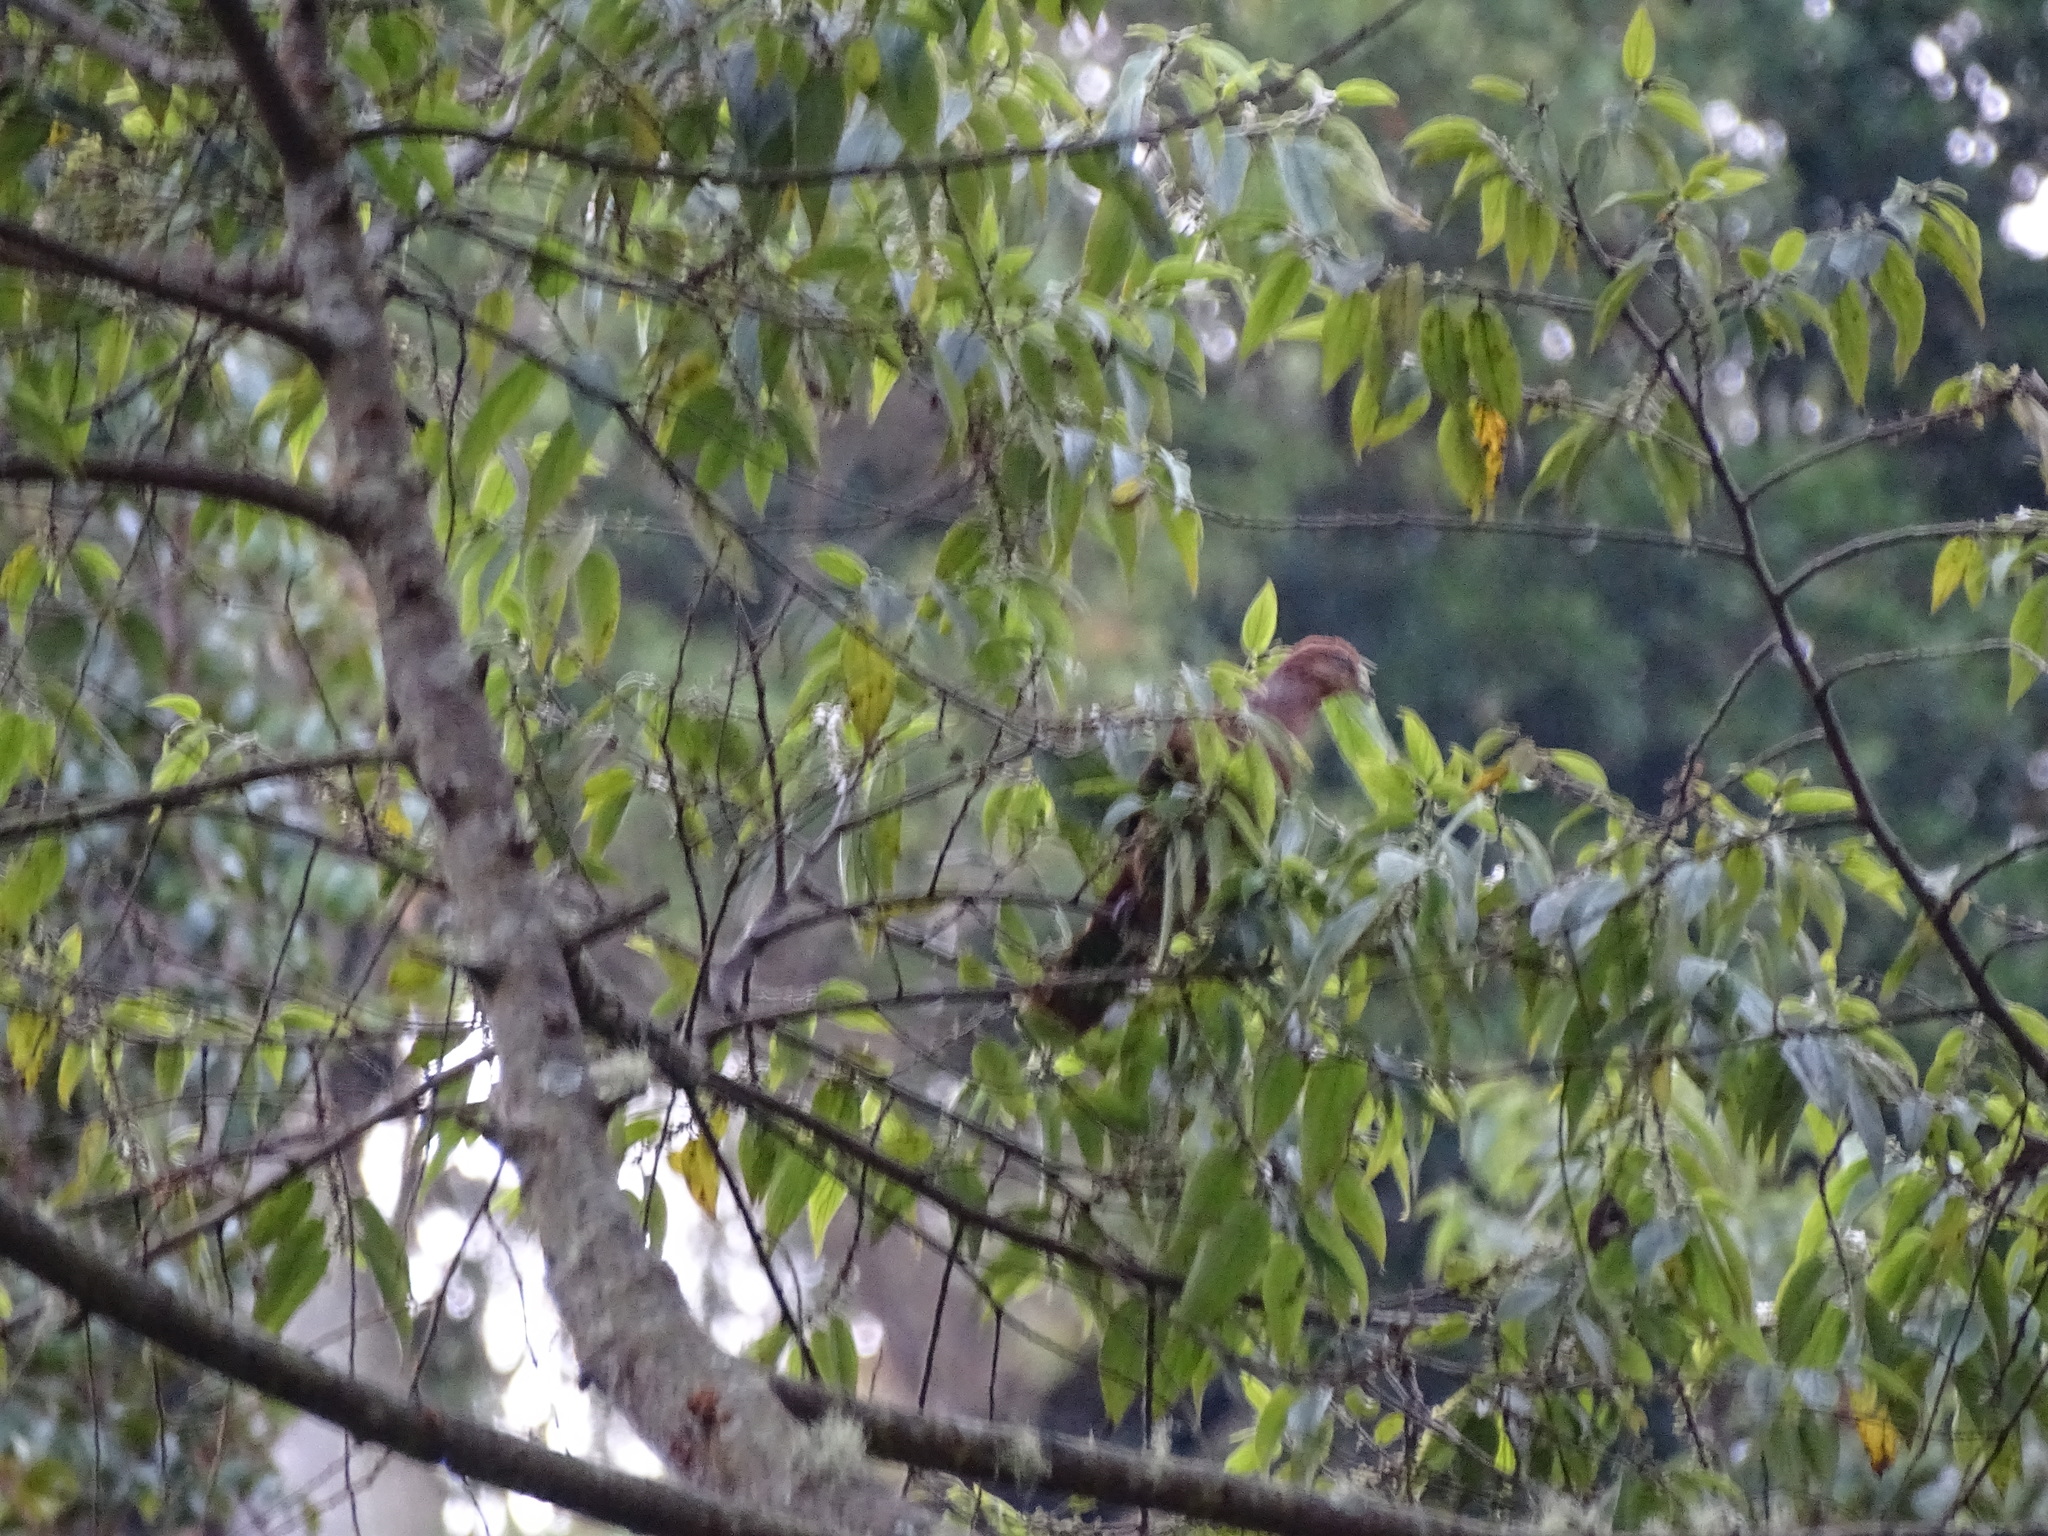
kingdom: Animalia
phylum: Chordata
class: Aves
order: Columbiformes
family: Columbidae
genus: Macropygia
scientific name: Macropygia ruficeps
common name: Little cuckoo-dove
